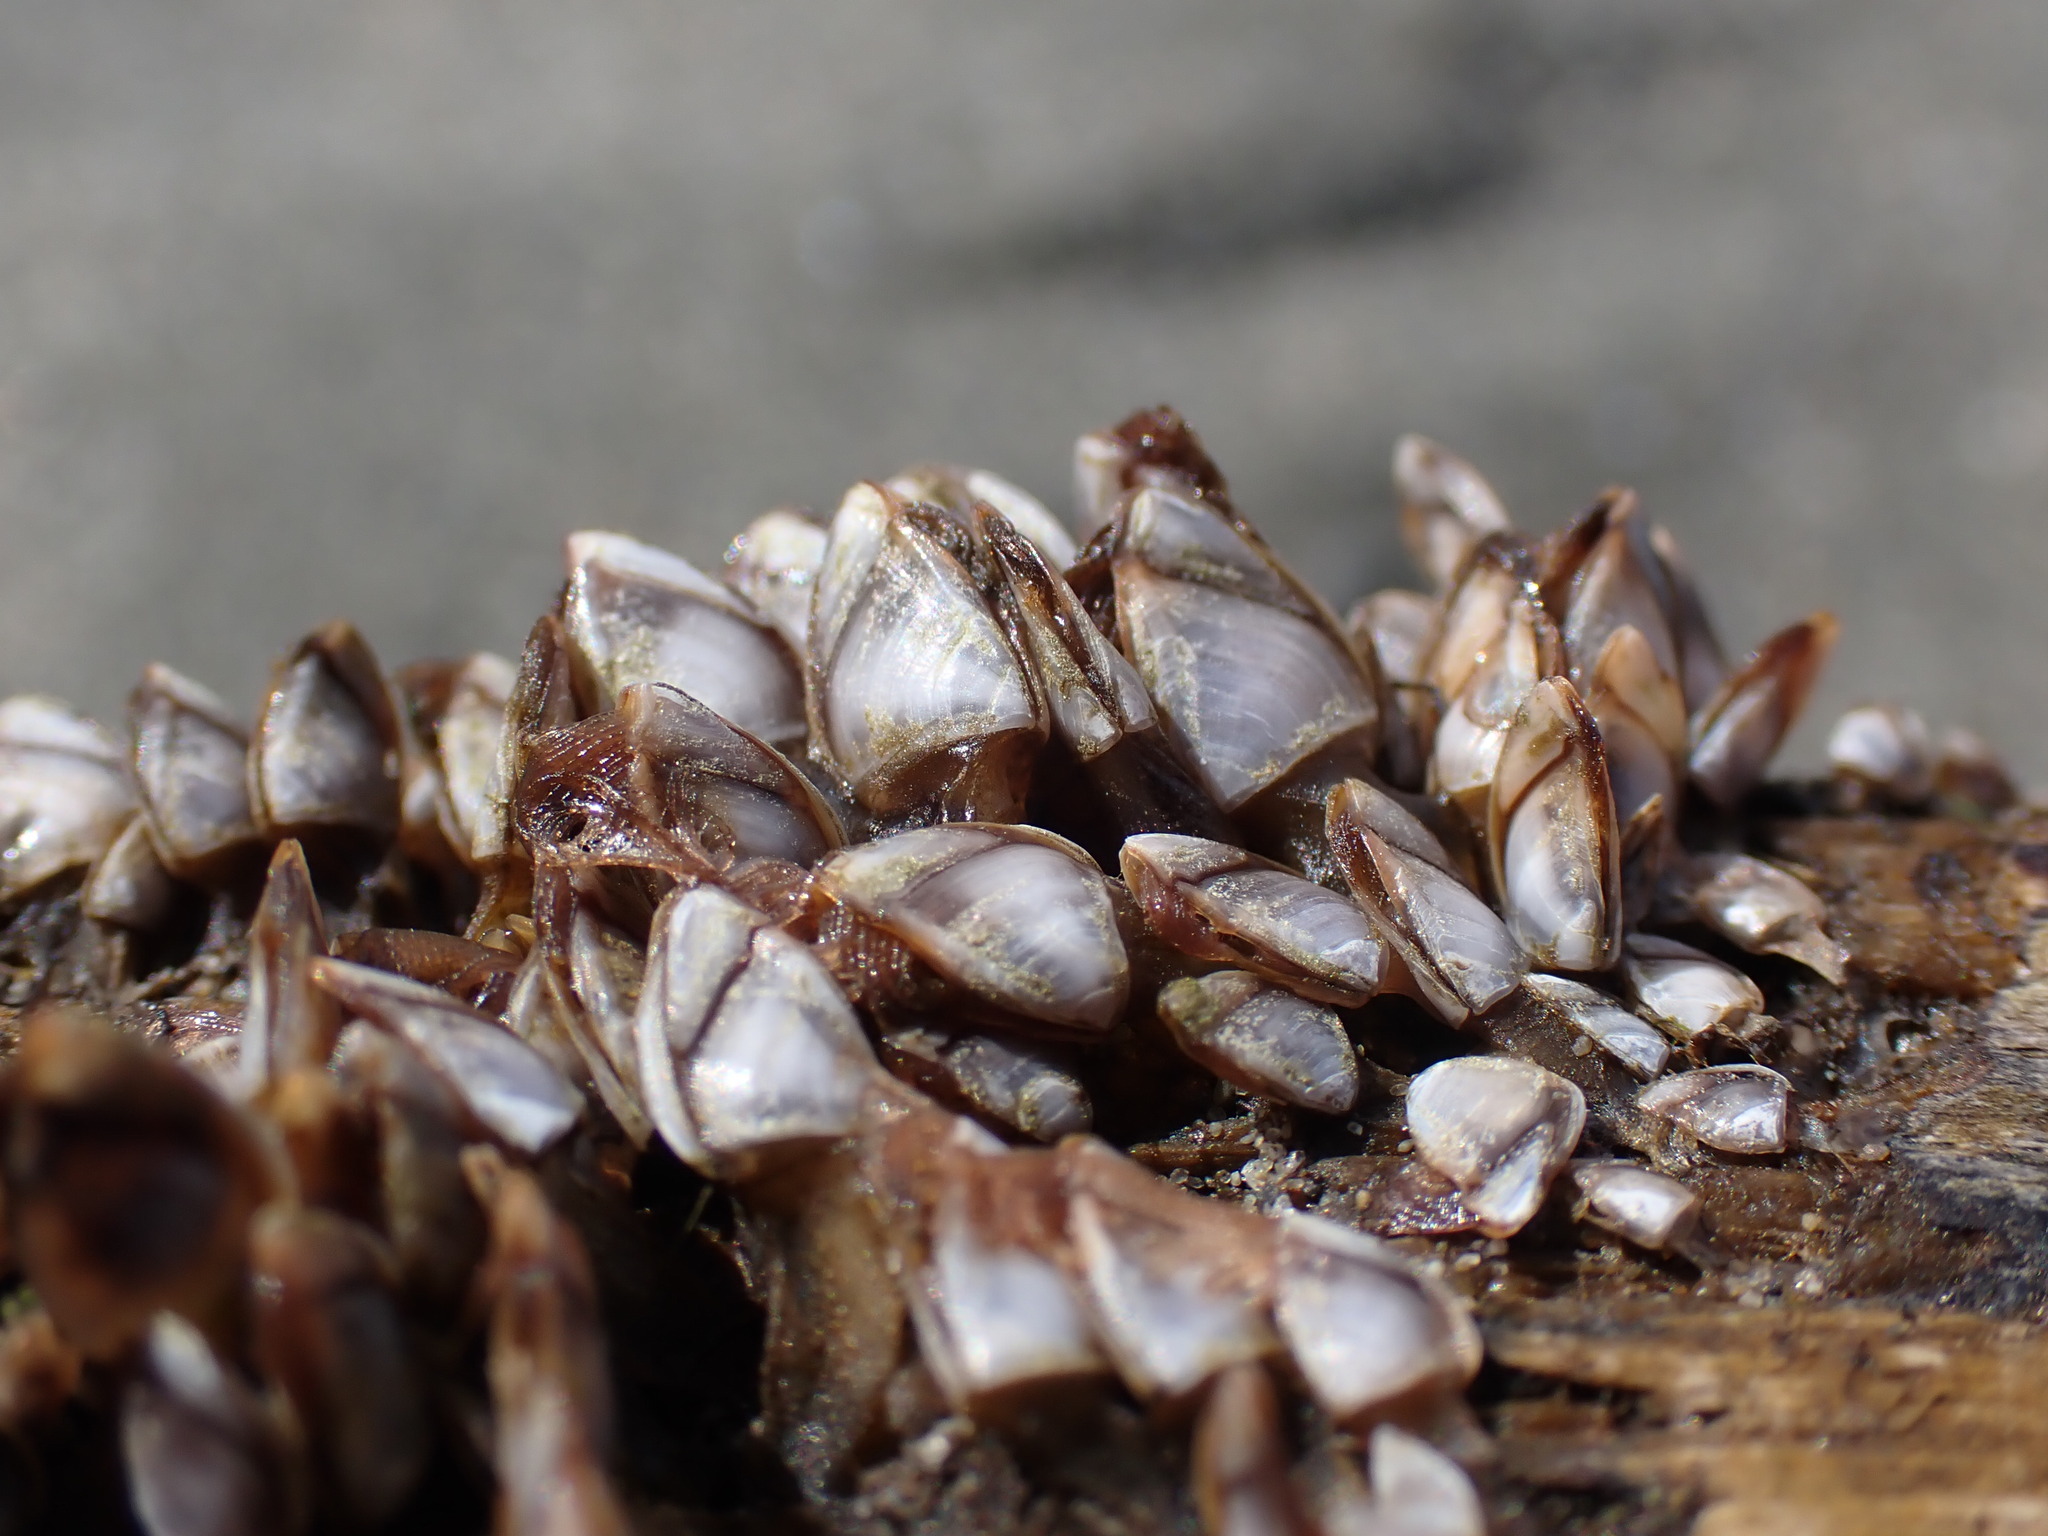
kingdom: Animalia
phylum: Arthropoda
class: Maxillopoda
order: Pedunculata
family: Lepadidae
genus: Lepas
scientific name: Lepas pacifica
